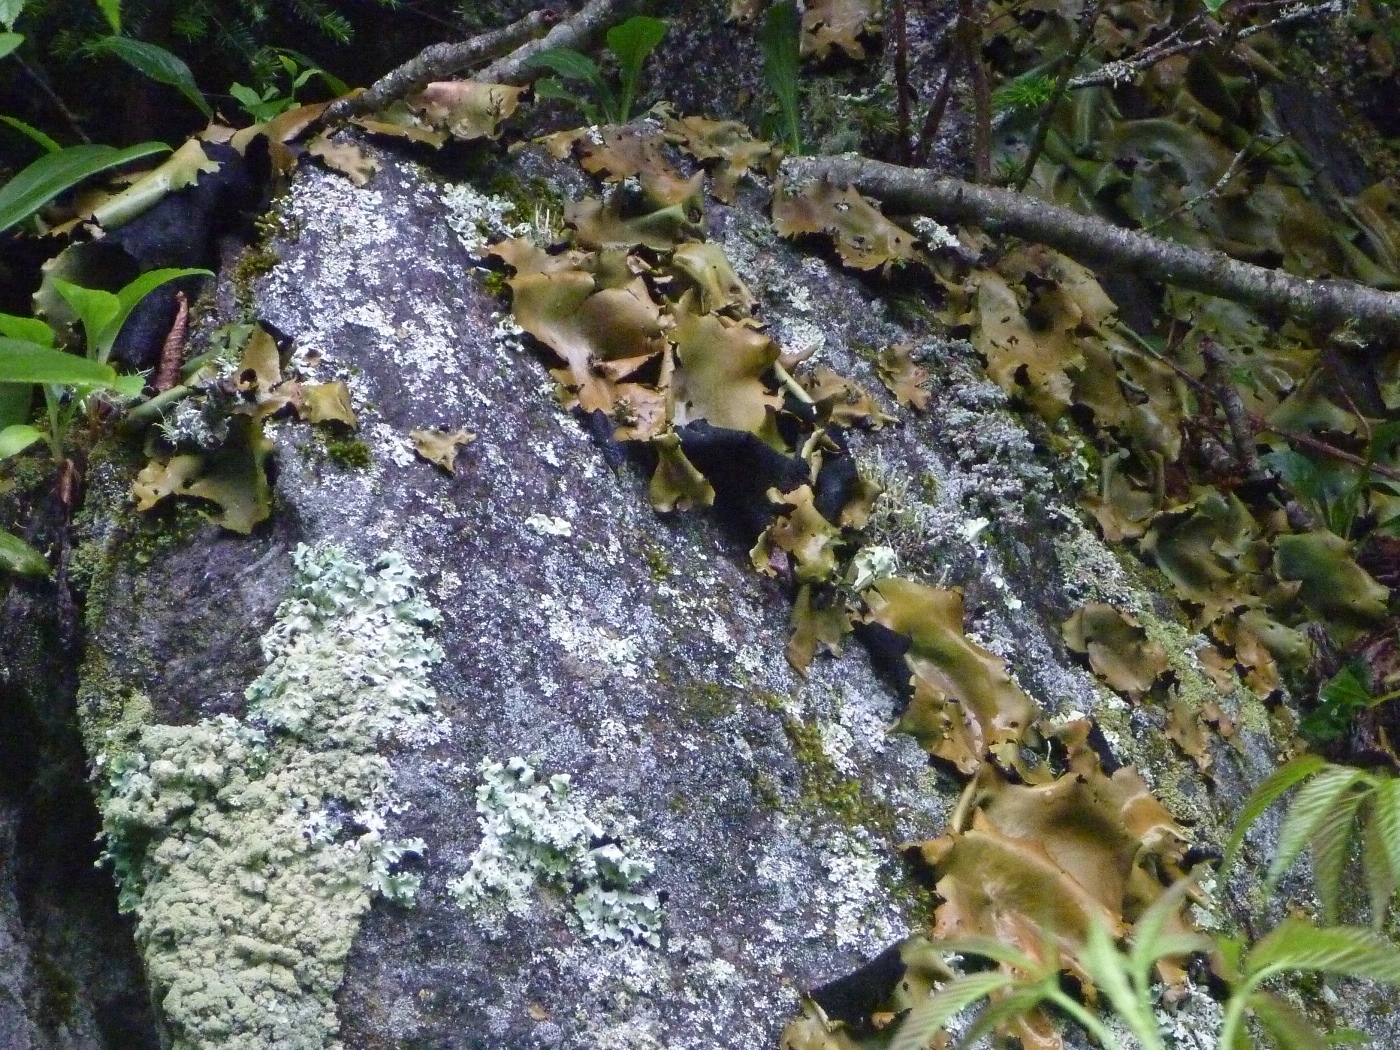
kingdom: Fungi
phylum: Ascomycota
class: Lecanoromycetes
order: Umbilicariales
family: Umbilicariaceae
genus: Umbilicaria
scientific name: Umbilicaria mammulata
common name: Smooth rock tripe
